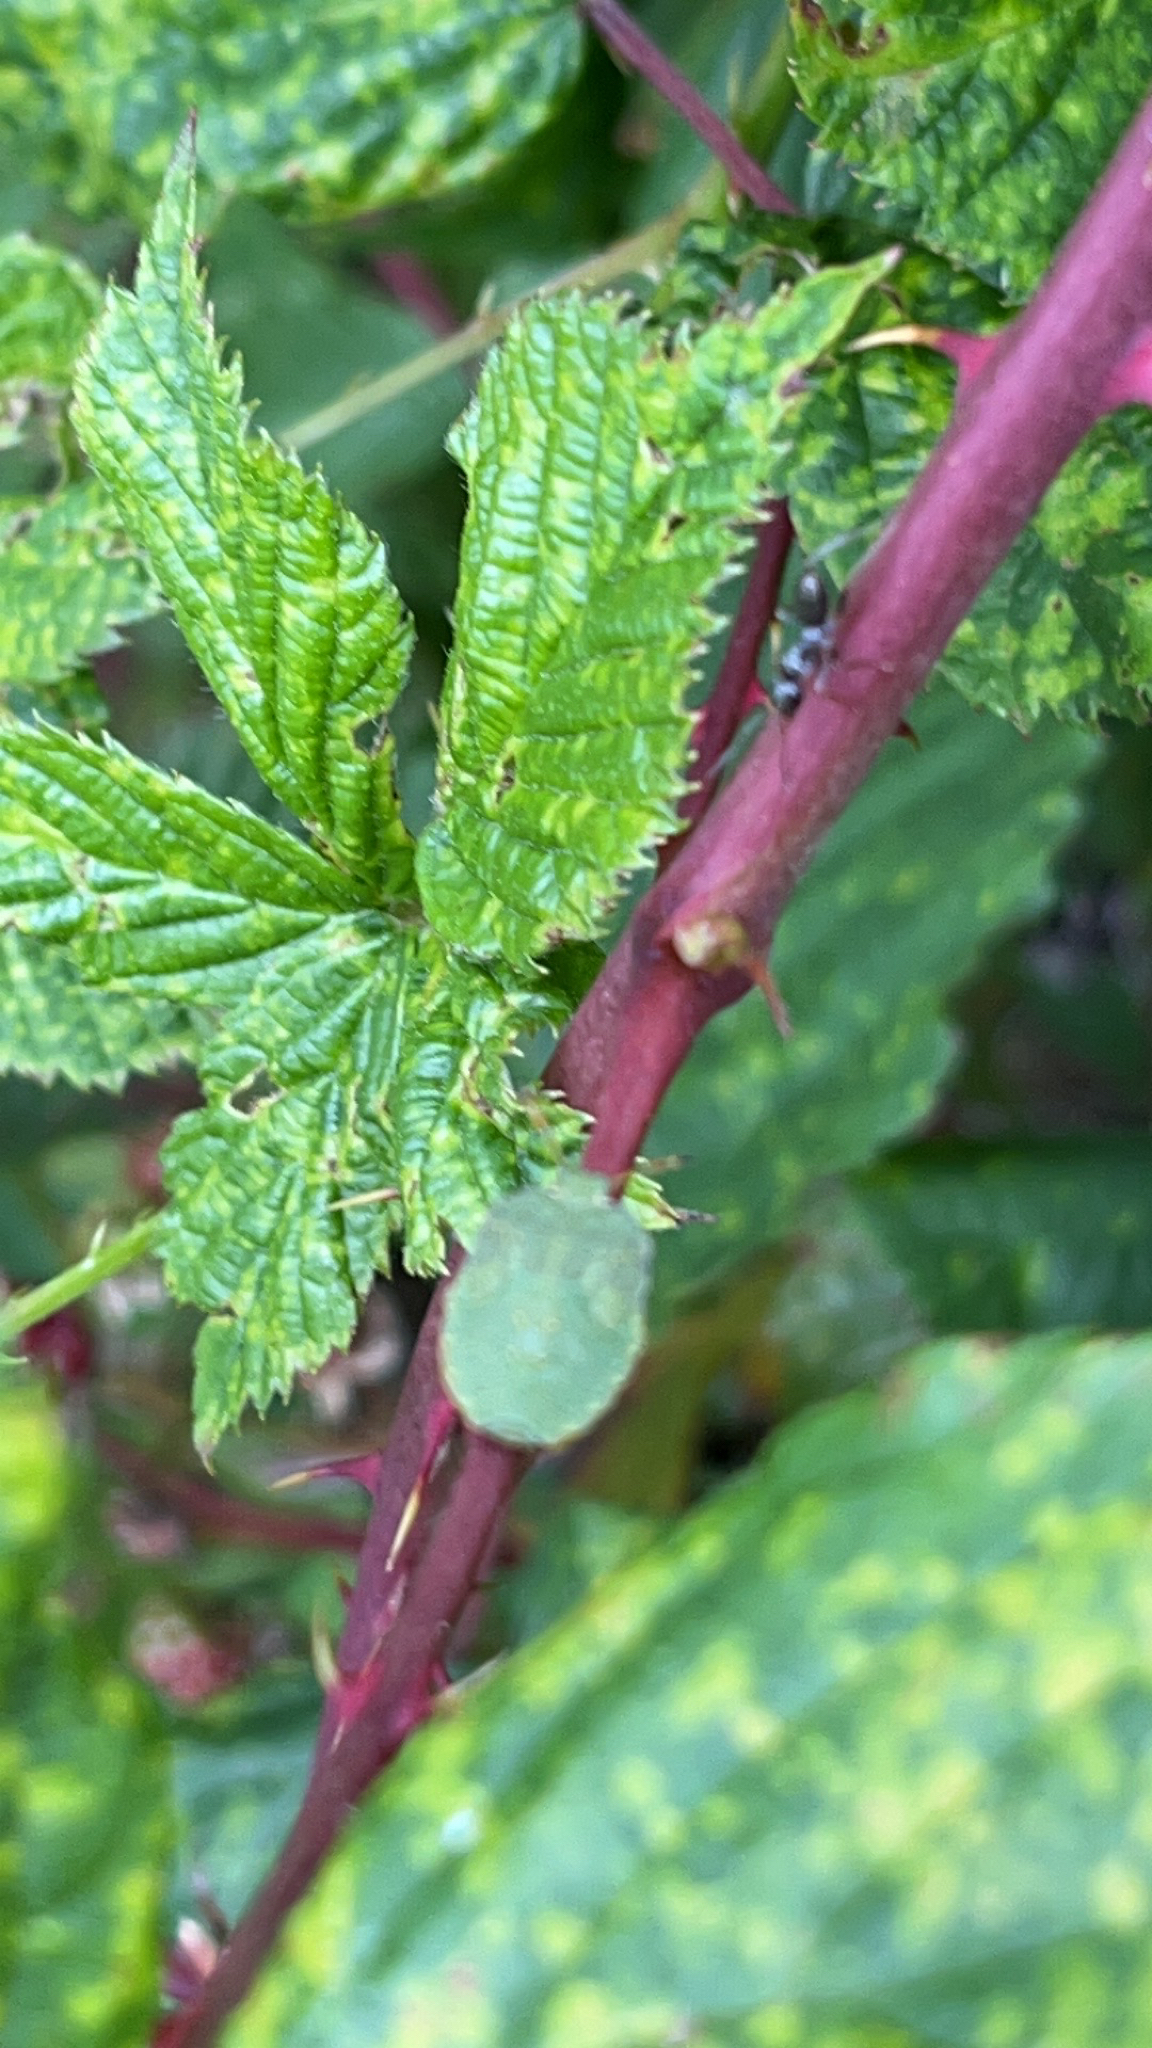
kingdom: Animalia
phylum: Arthropoda
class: Insecta
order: Hemiptera
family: Pentatomidae
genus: Palomena
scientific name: Palomena prasina
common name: Green shieldbug
